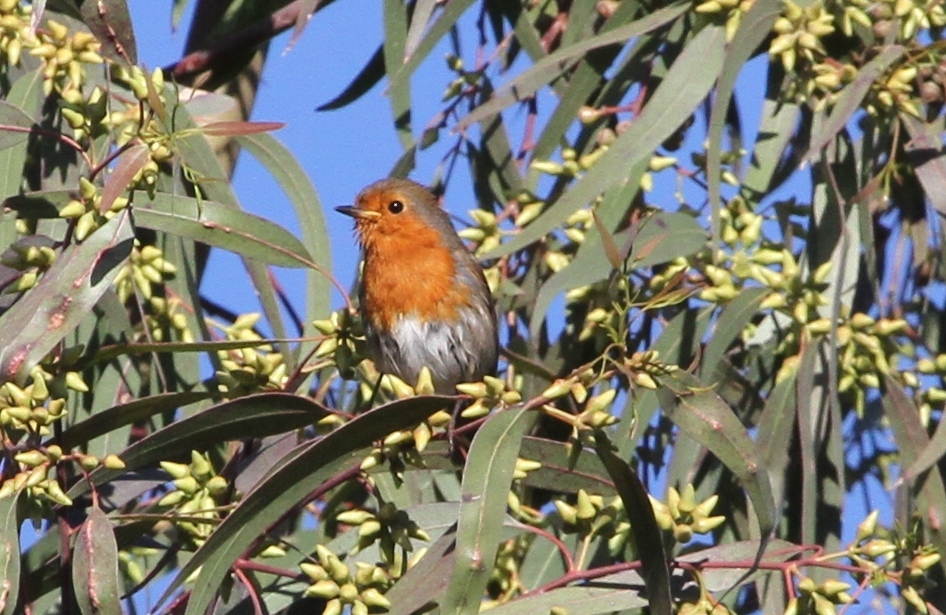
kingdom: Animalia
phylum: Chordata
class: Aves
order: Passeriformes
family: Muscicapidae
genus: Erithacus
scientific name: Erithacus rubecula
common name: European robin
